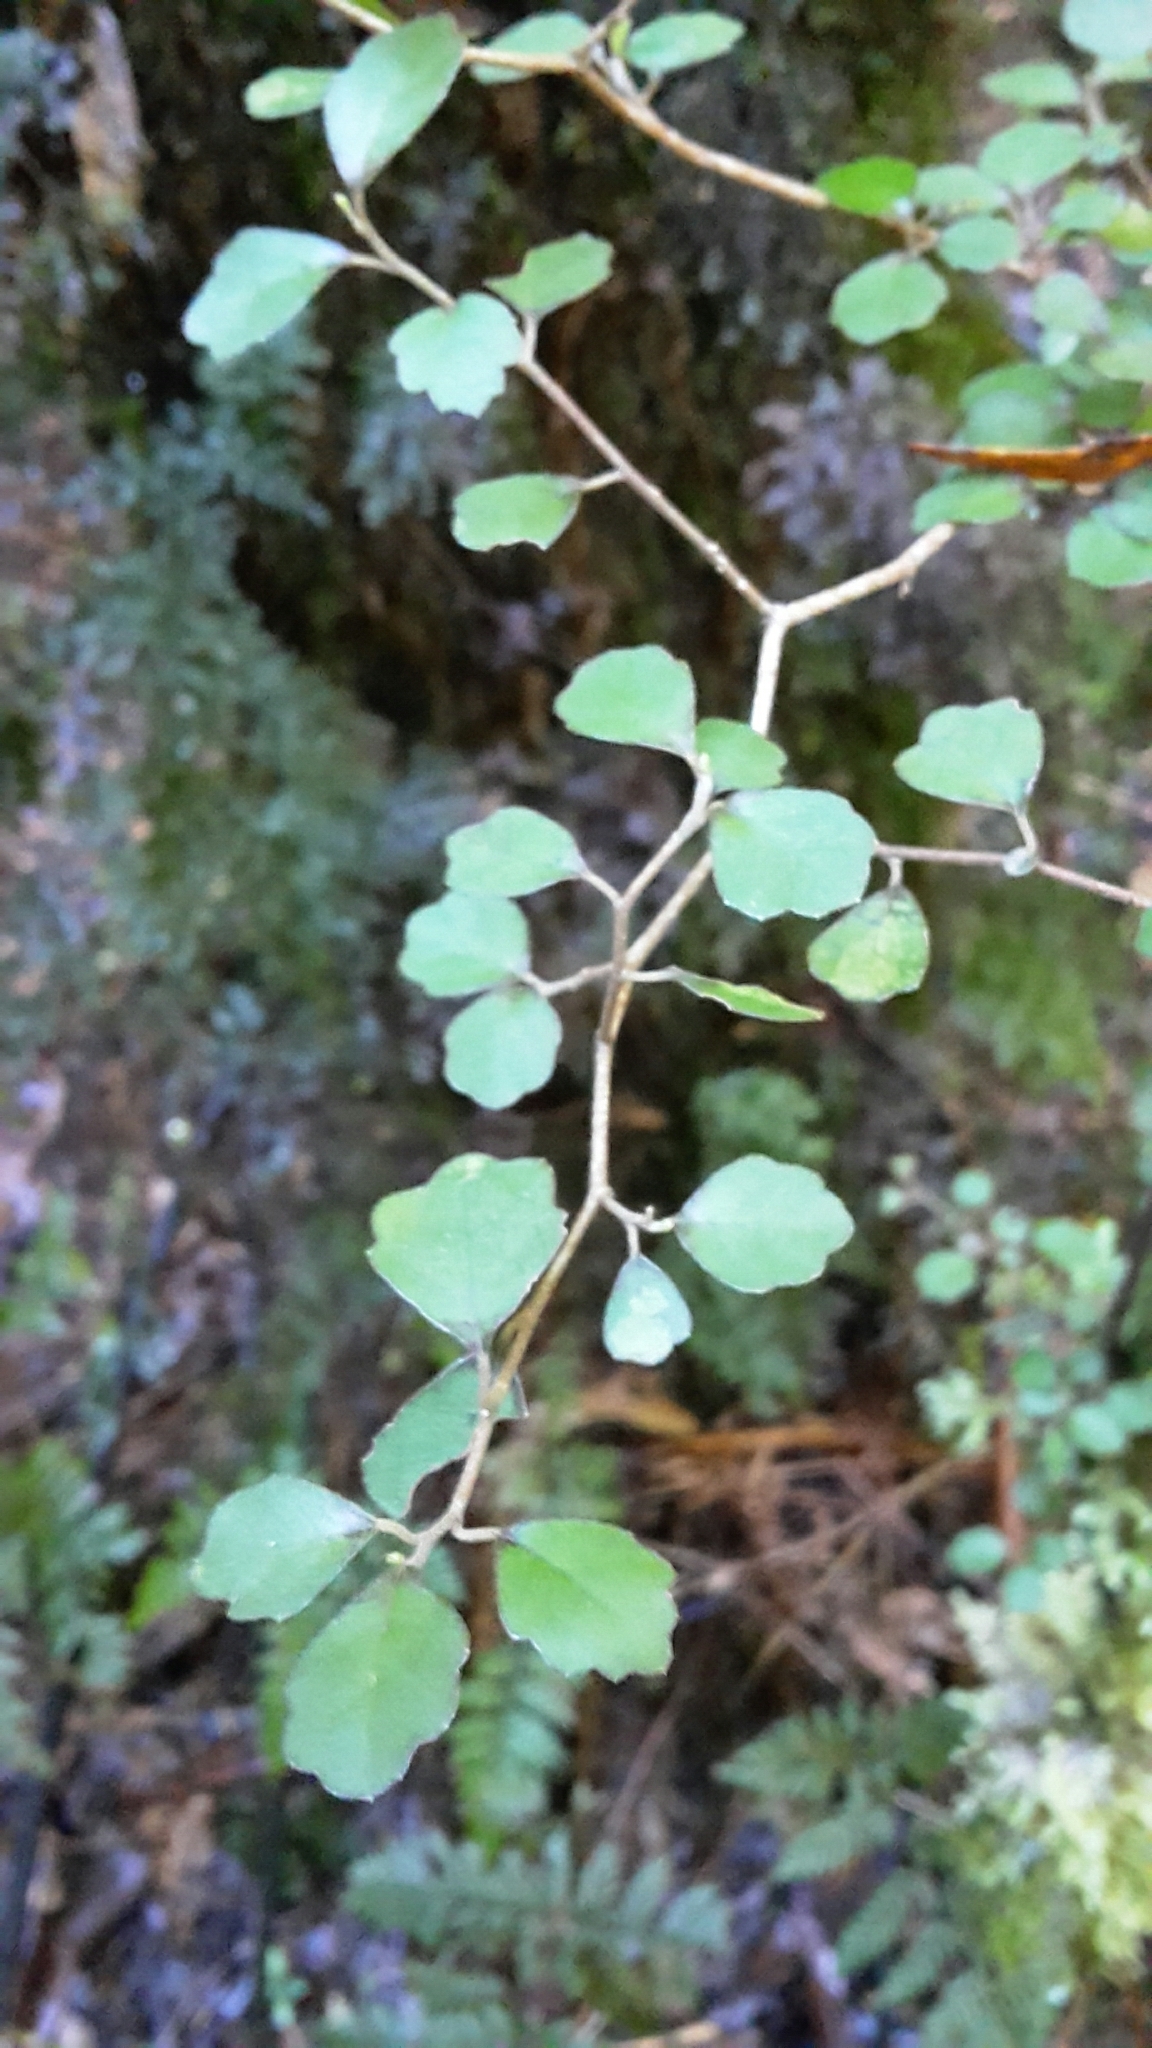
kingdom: Plantae
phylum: Tracheophyta
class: Magnoliopsida
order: Apiales
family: Pennantiaceae
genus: Pennantia
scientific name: Pennantia corymbosa
